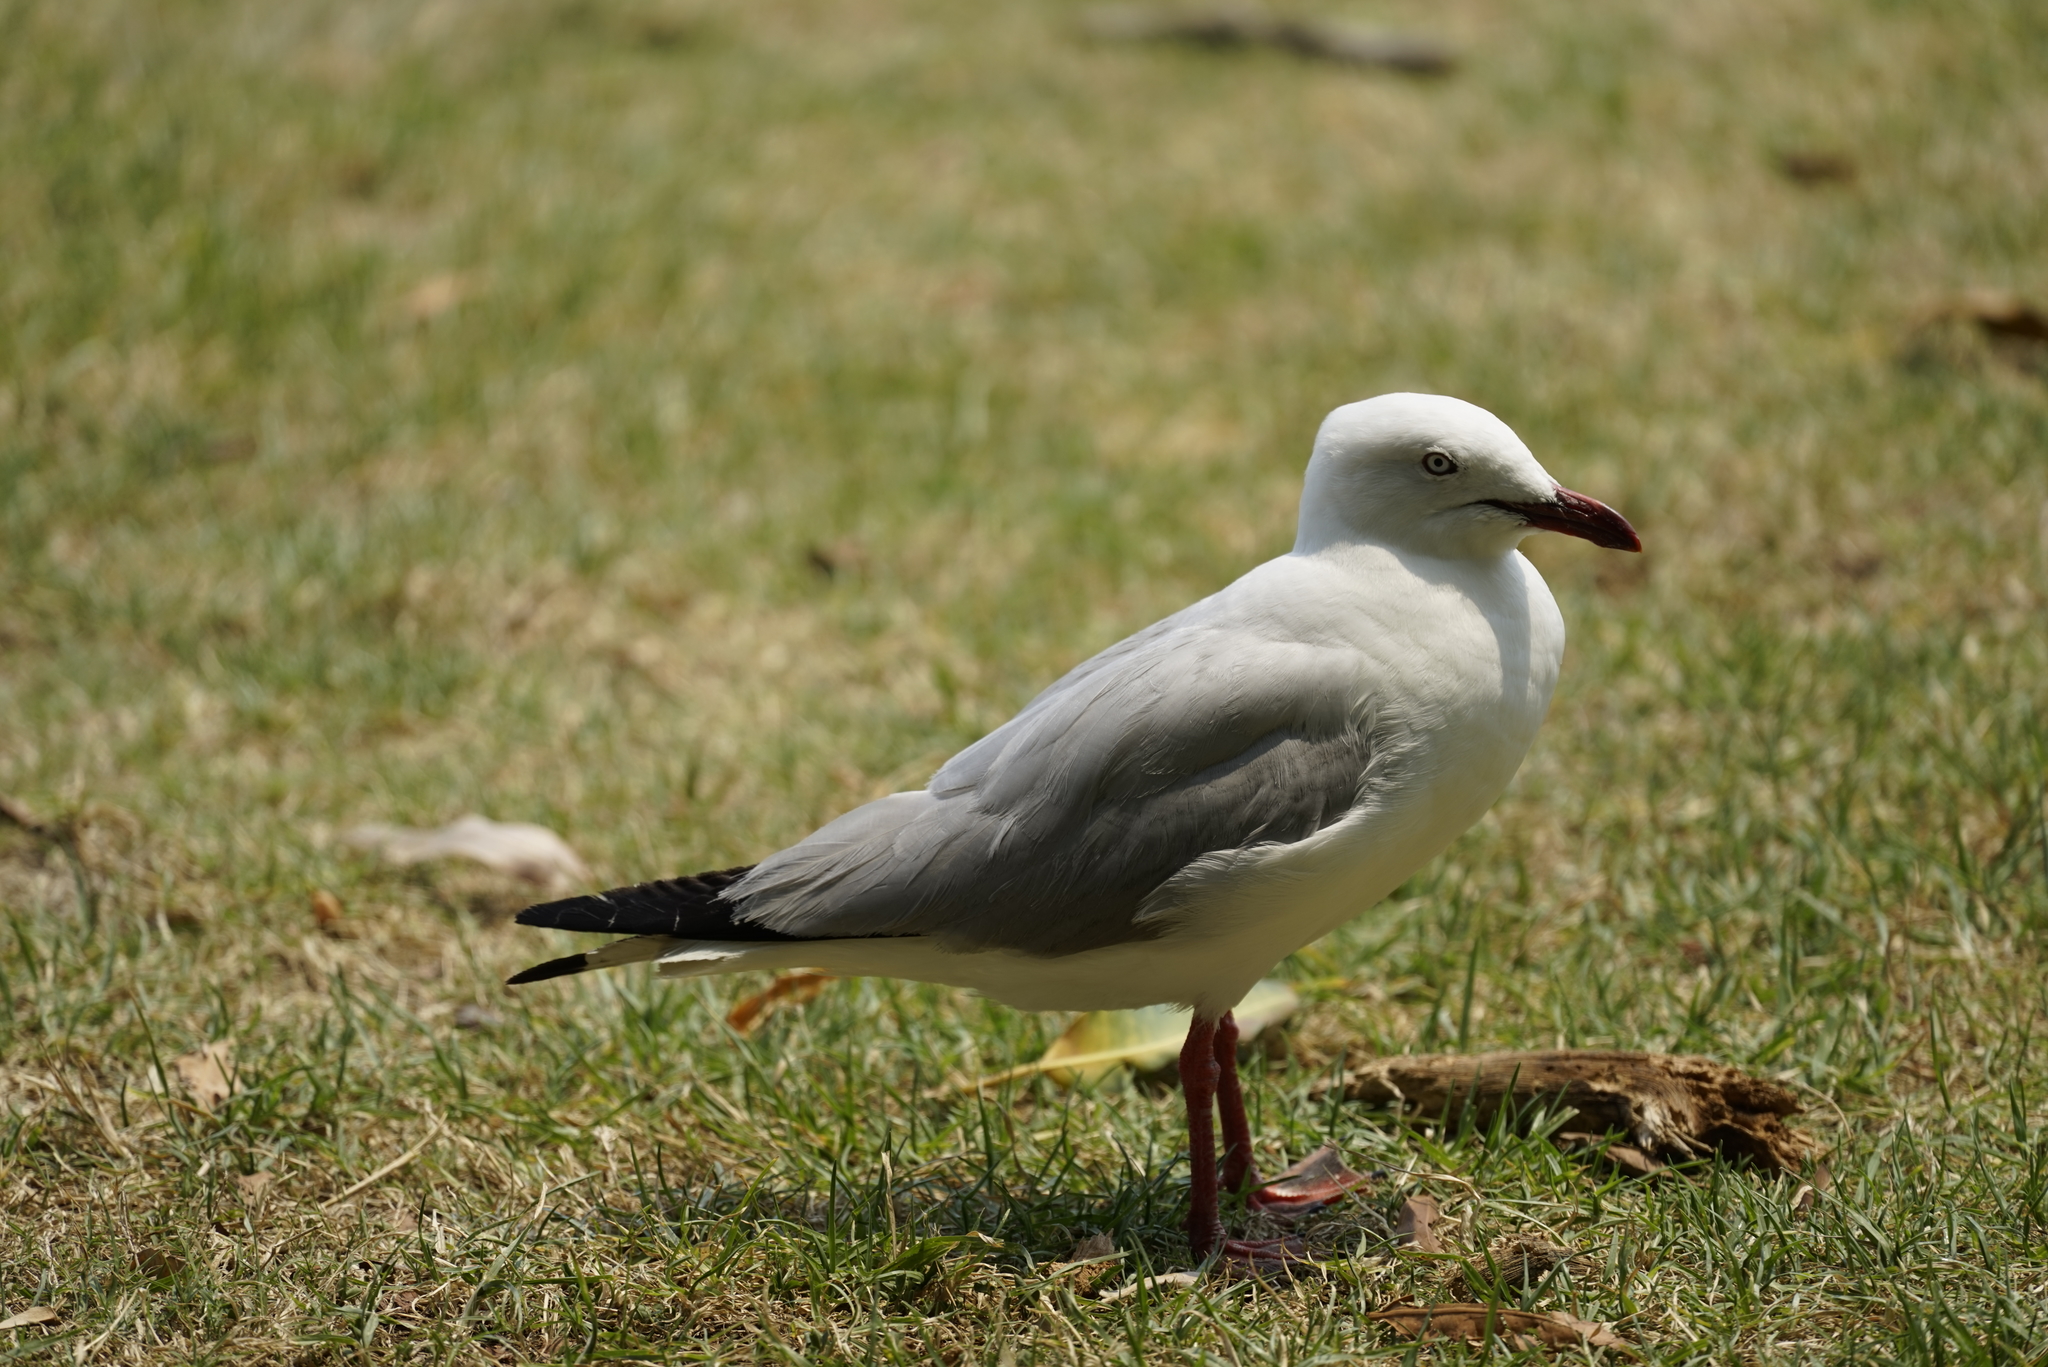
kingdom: Animalia
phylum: Chordata
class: Aves
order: Charadriiformes
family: Laridae
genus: Chroicocephalus
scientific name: Chroicocephalus novaehollandiae
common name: Silver gull
